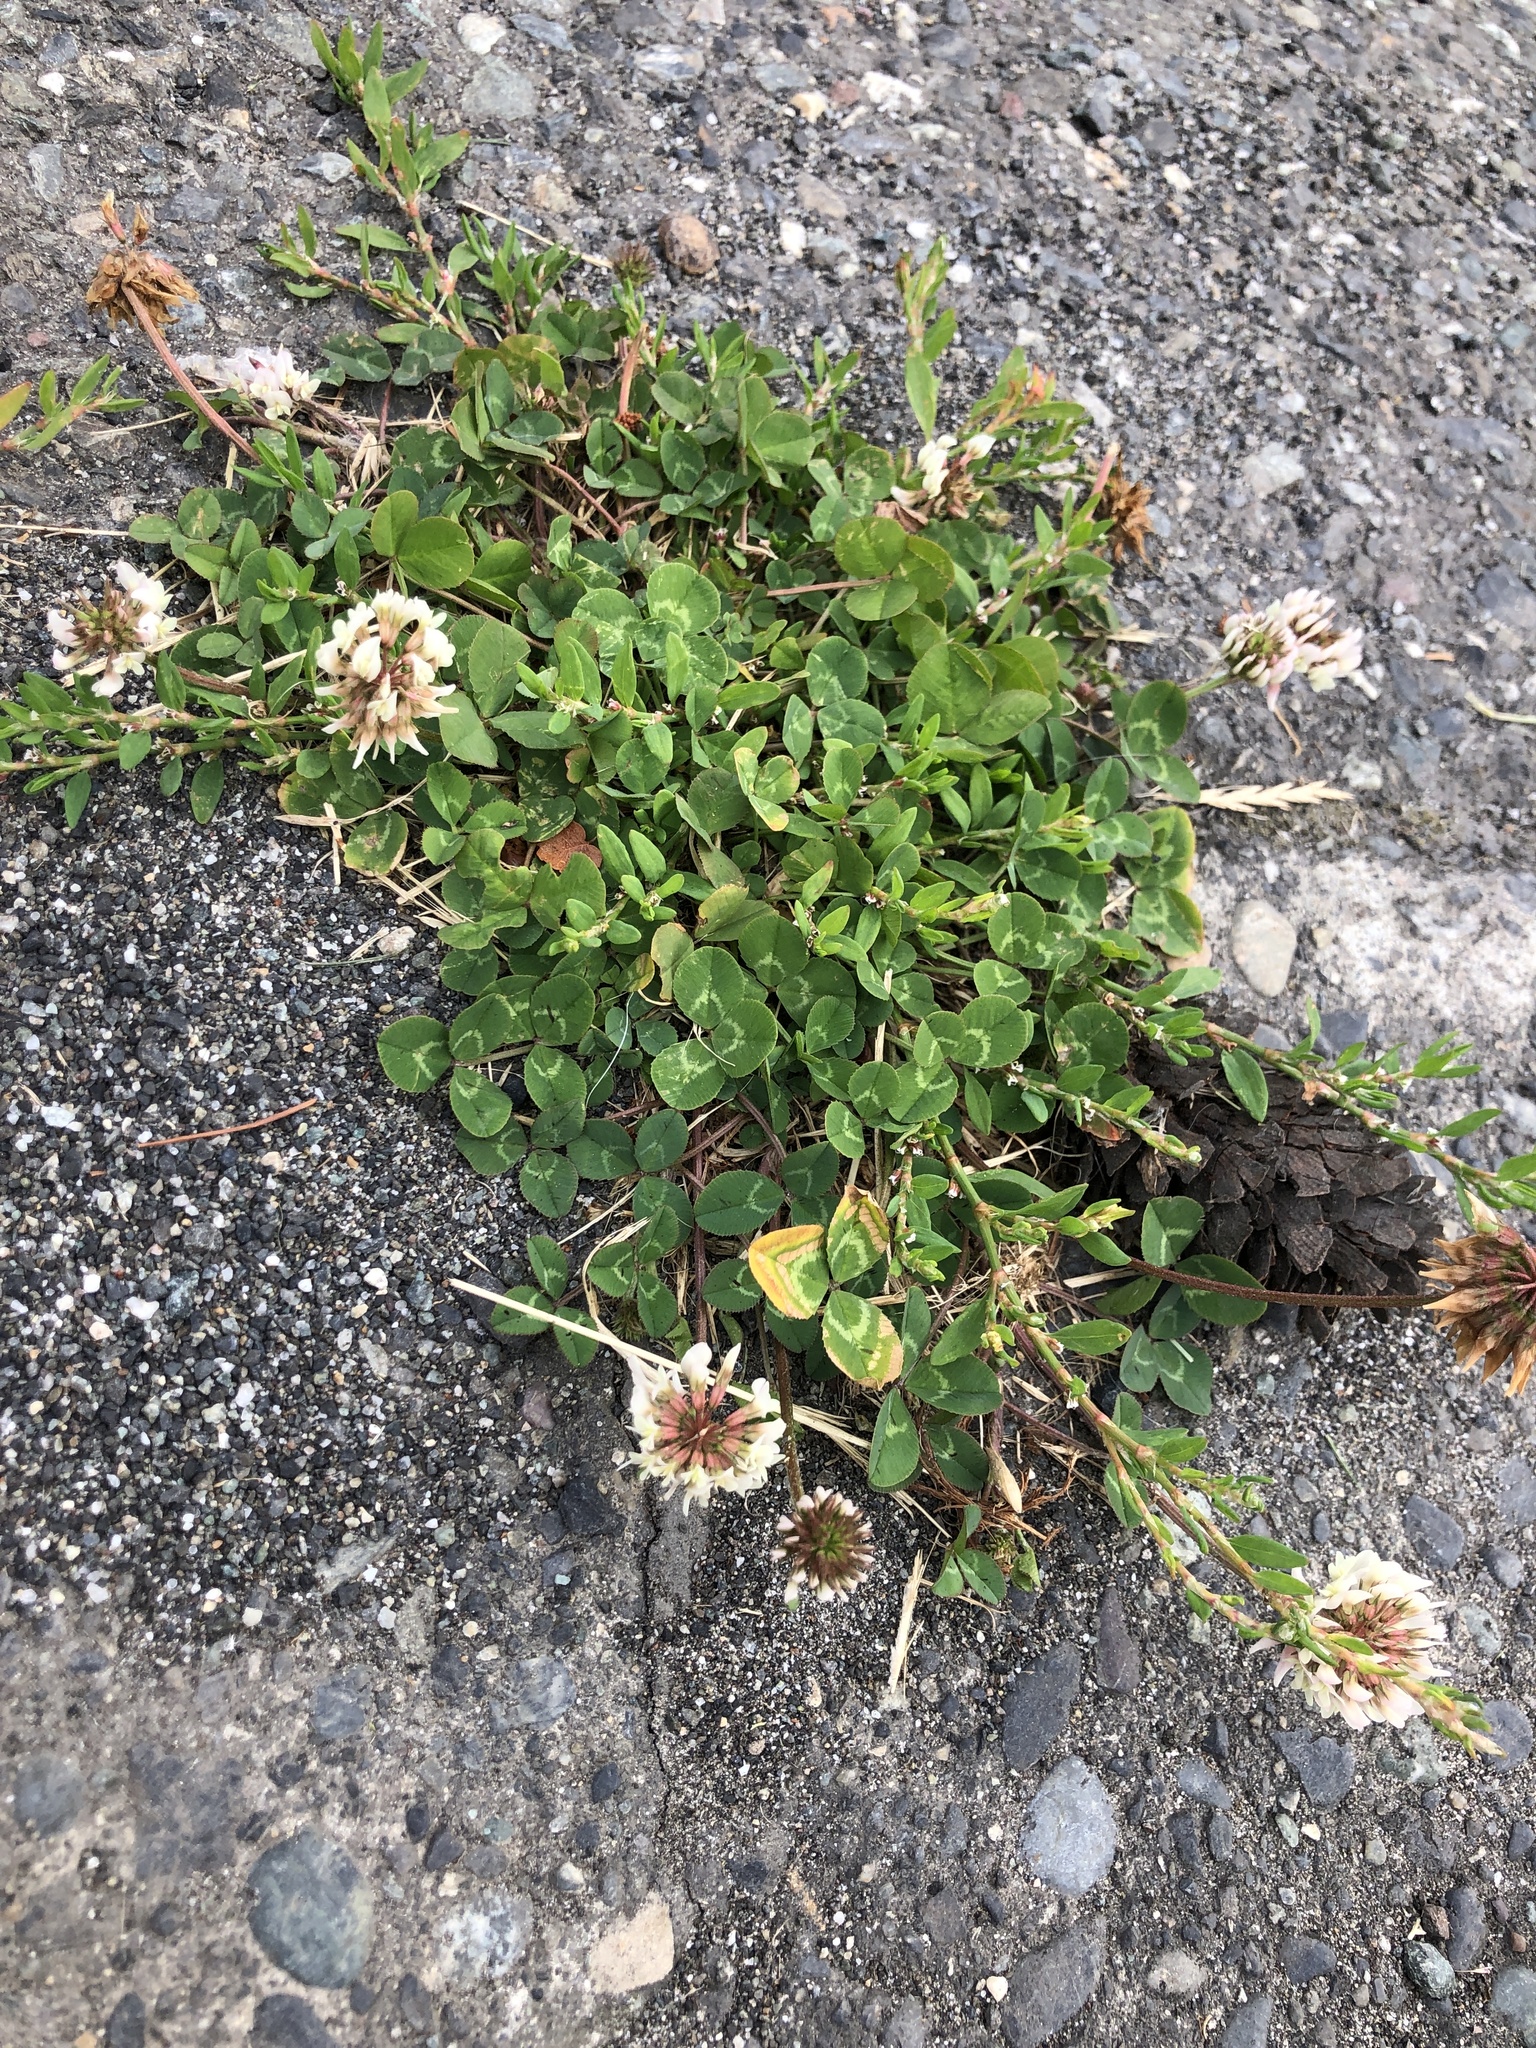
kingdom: Plantae
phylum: Tracheophyta
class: Magnoliopsida
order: Fabales
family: Fabaceae
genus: Trifolium
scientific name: Trifolium repens
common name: White clover
